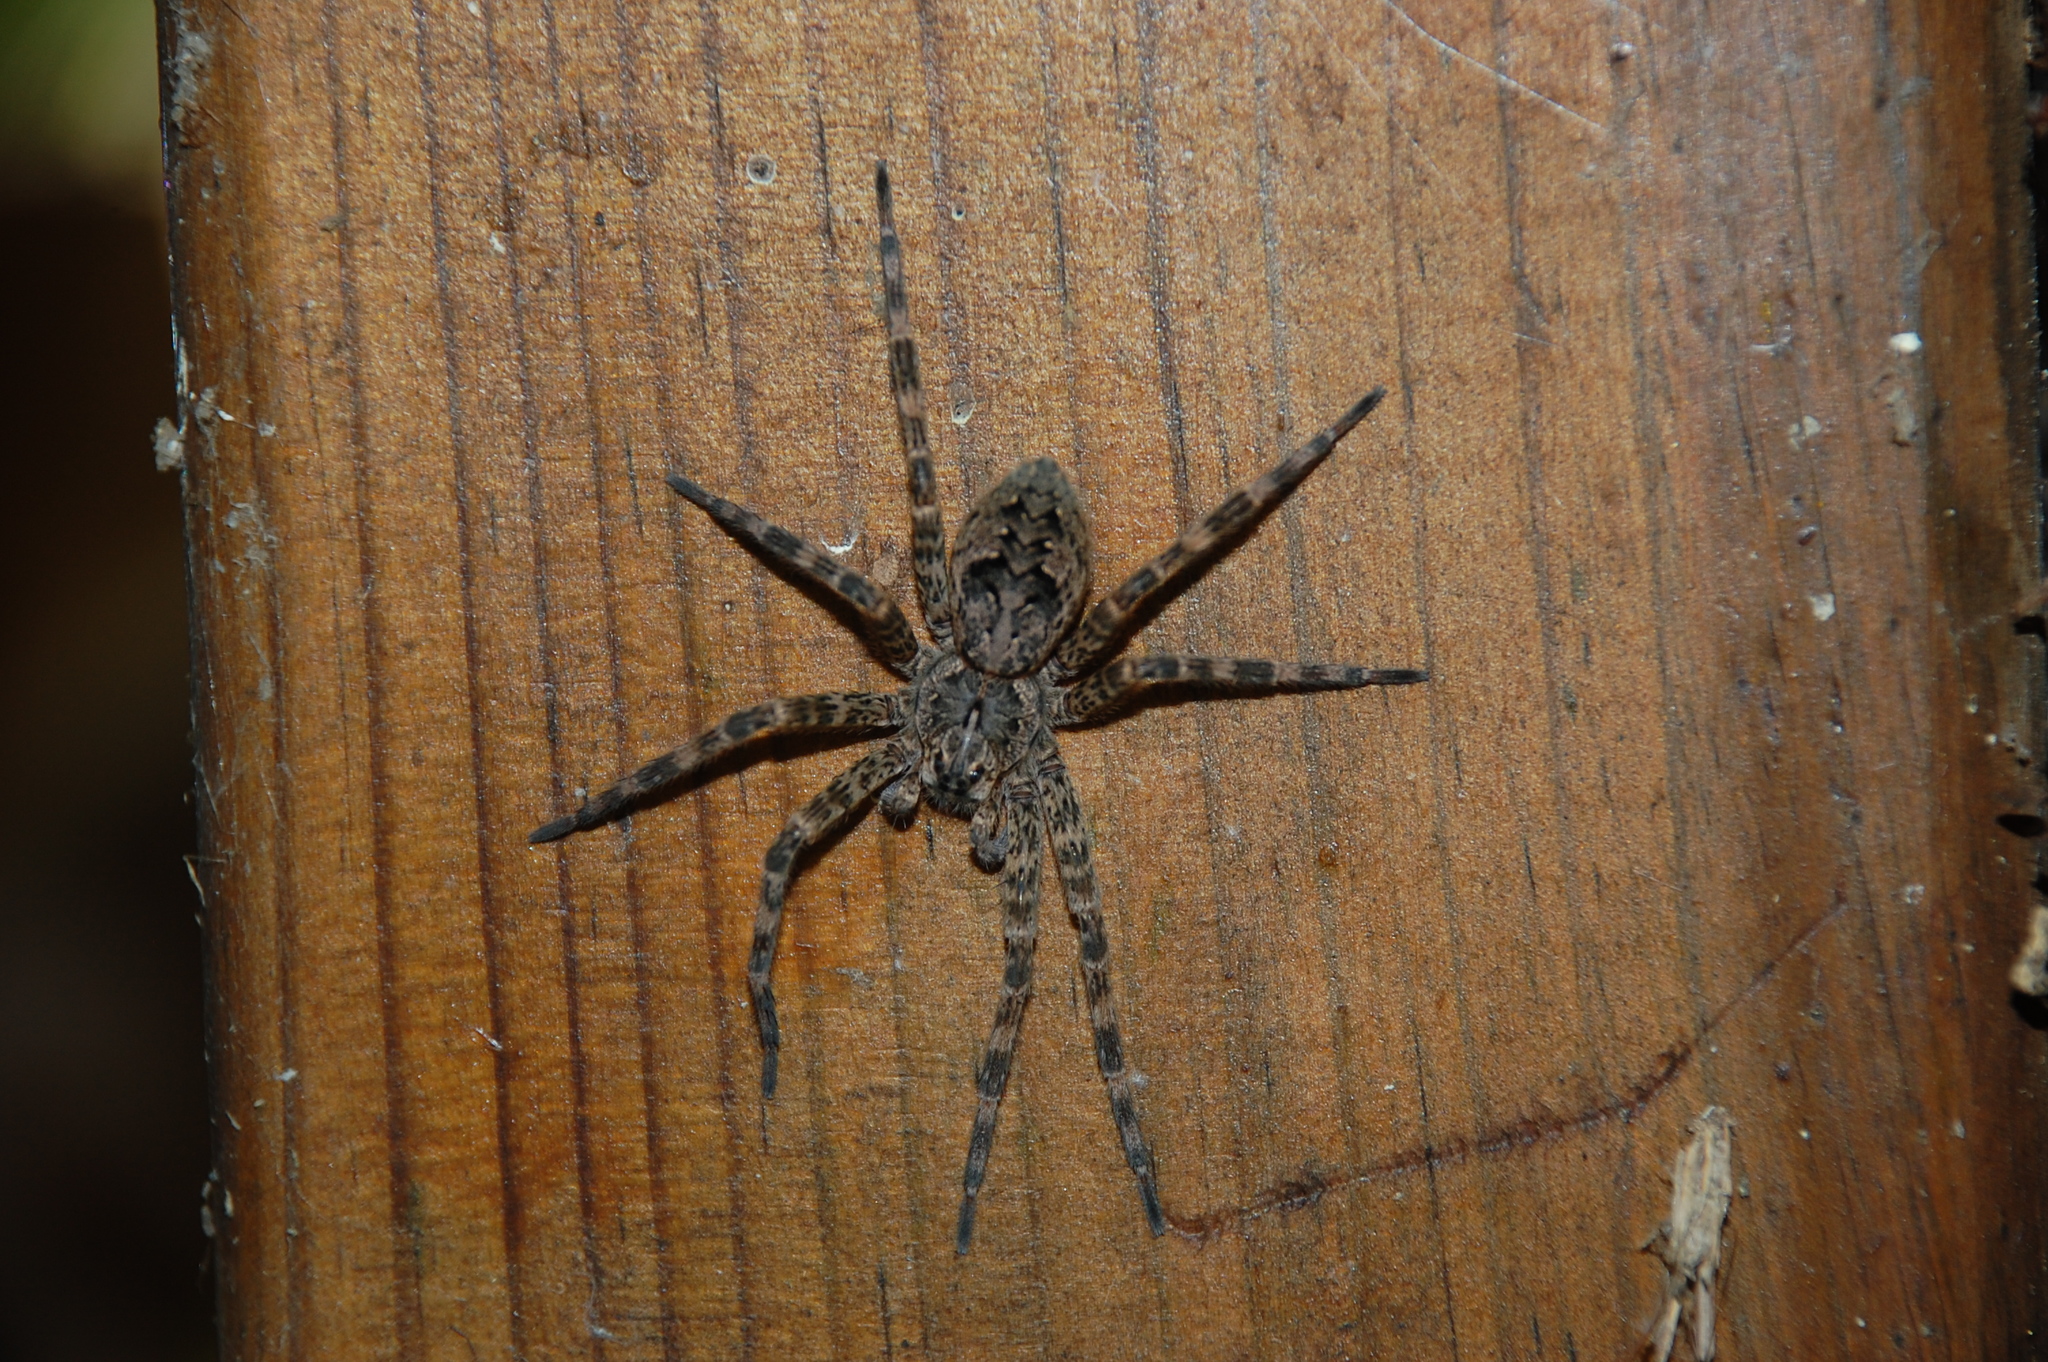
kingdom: Animalia
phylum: Arthropoda
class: Arachnida
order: Araneae
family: Pisauridae
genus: Dolomedes
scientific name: Dolomedes tenebrosus
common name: Dark fishing spider
